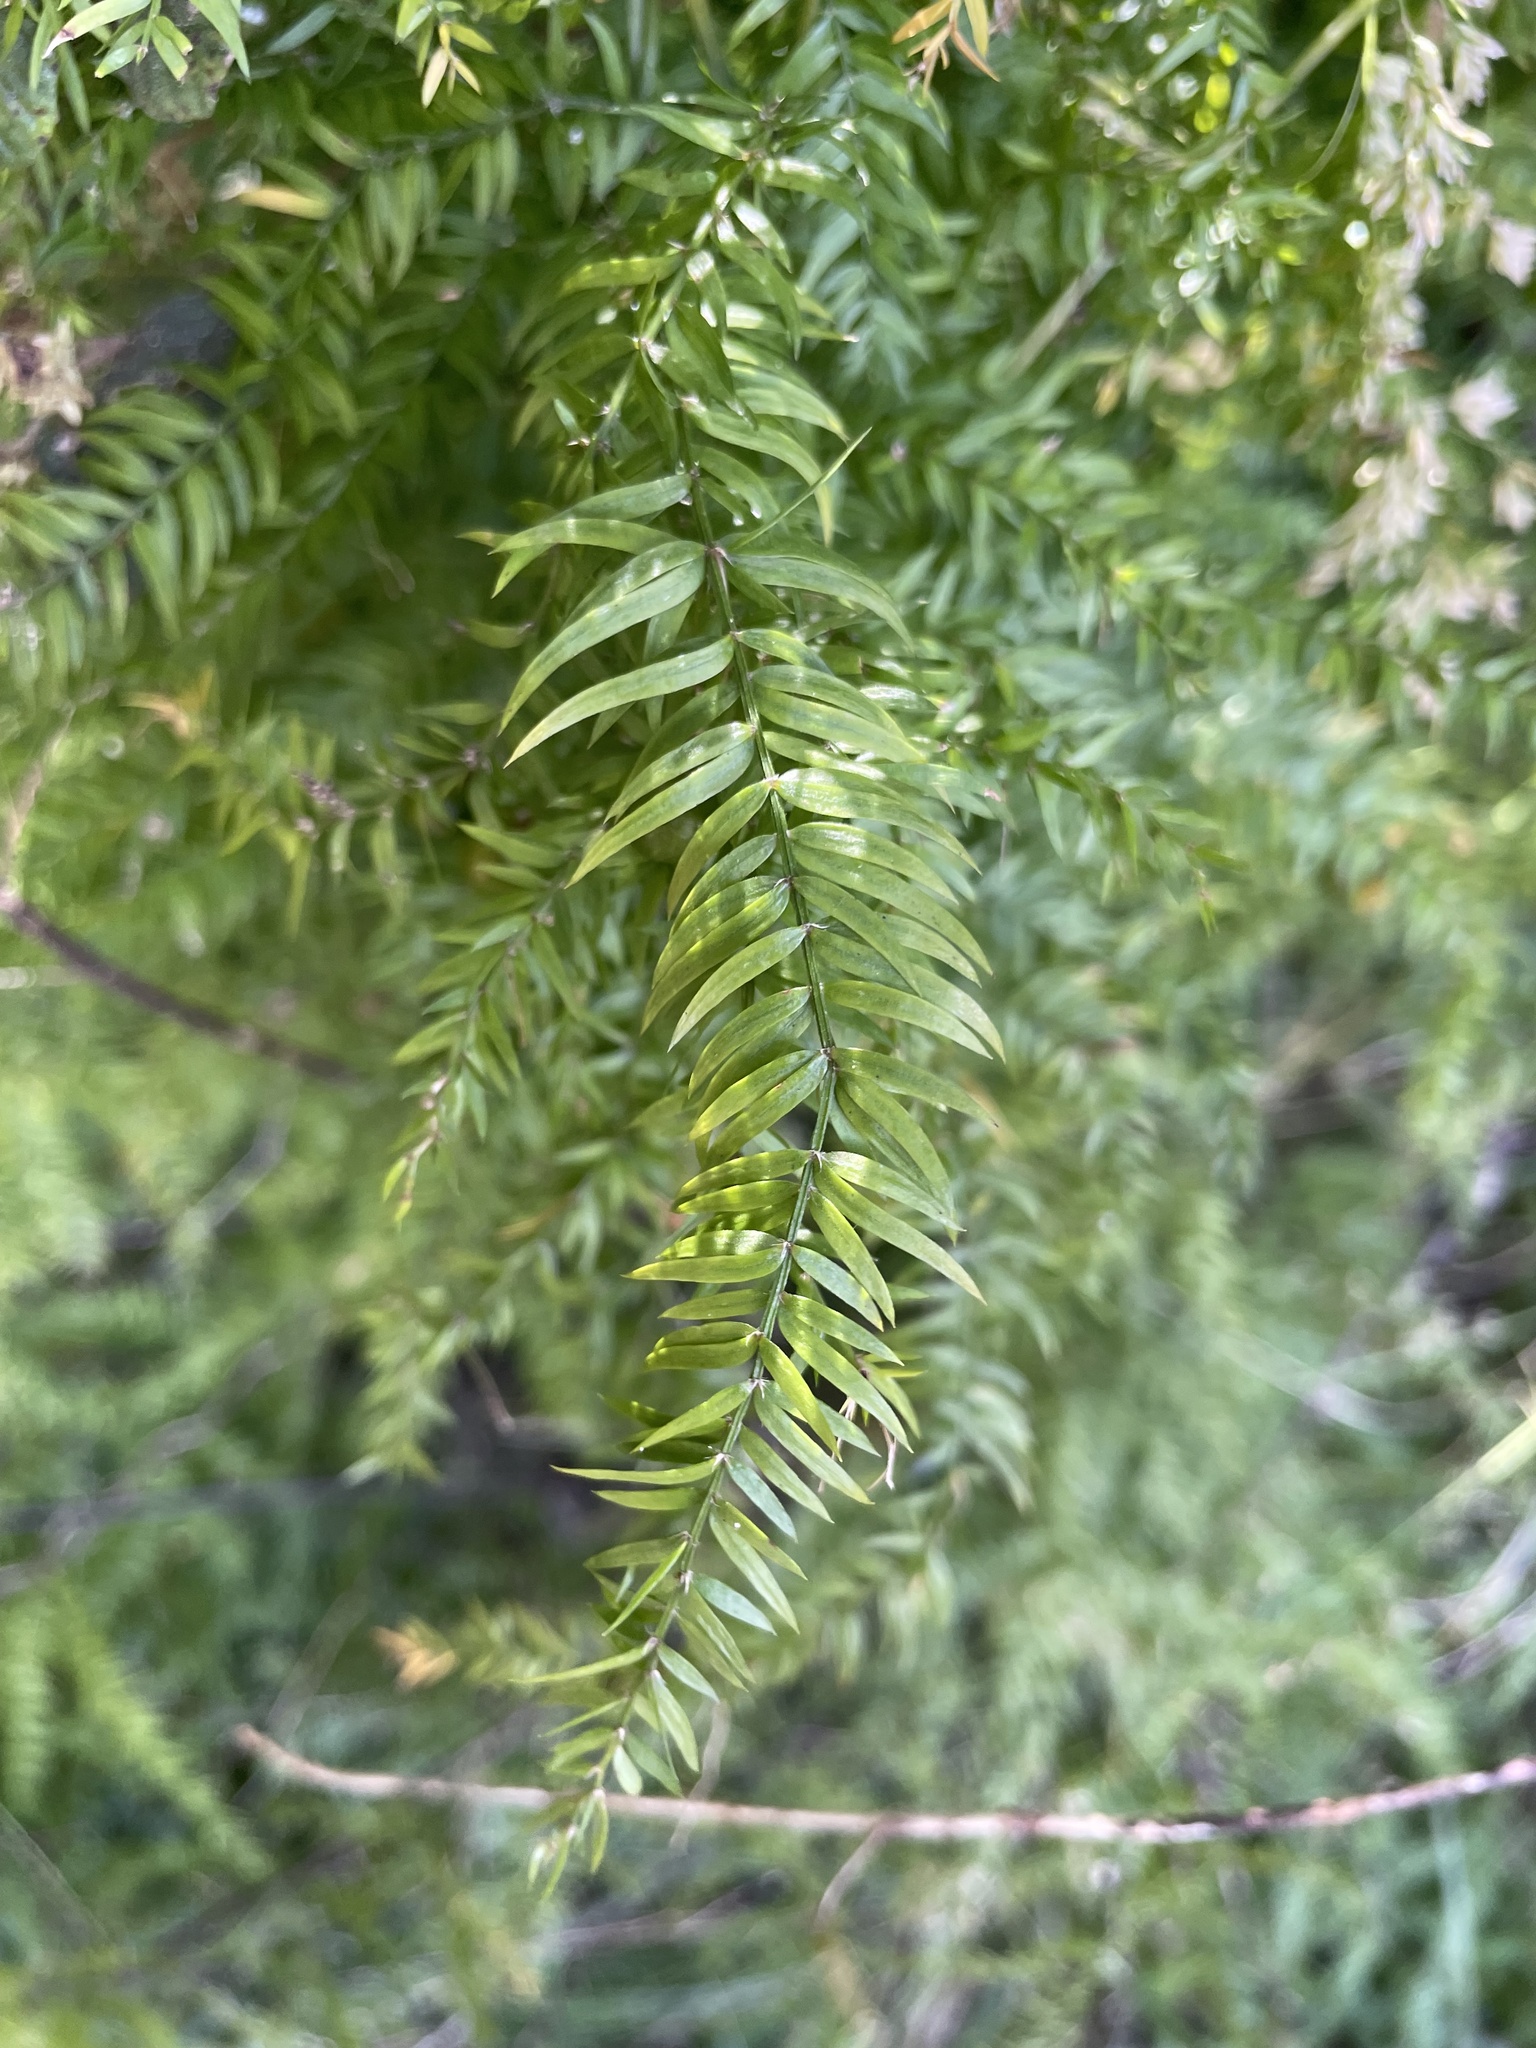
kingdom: Plantae
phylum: Tracheophyta
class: Liliopsida
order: Asparagales
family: Asparagaceae
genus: Asparagus
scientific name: Asparagus scandens
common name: Asparagus-fern
